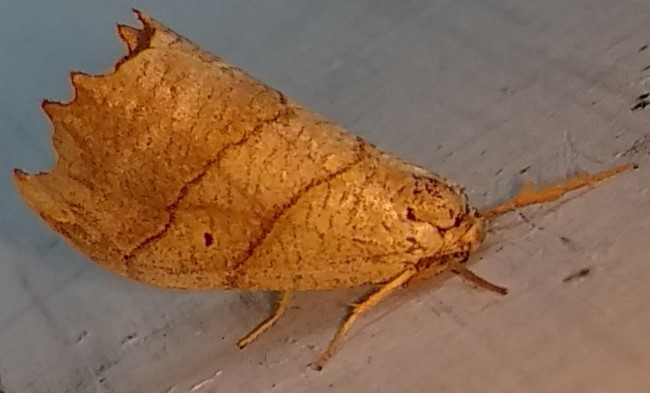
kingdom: Animalia
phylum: Arthropoda
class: Insecta
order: Lepidoptera
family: Drepanidae
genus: Falcaria
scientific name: Falcaria bilineata
